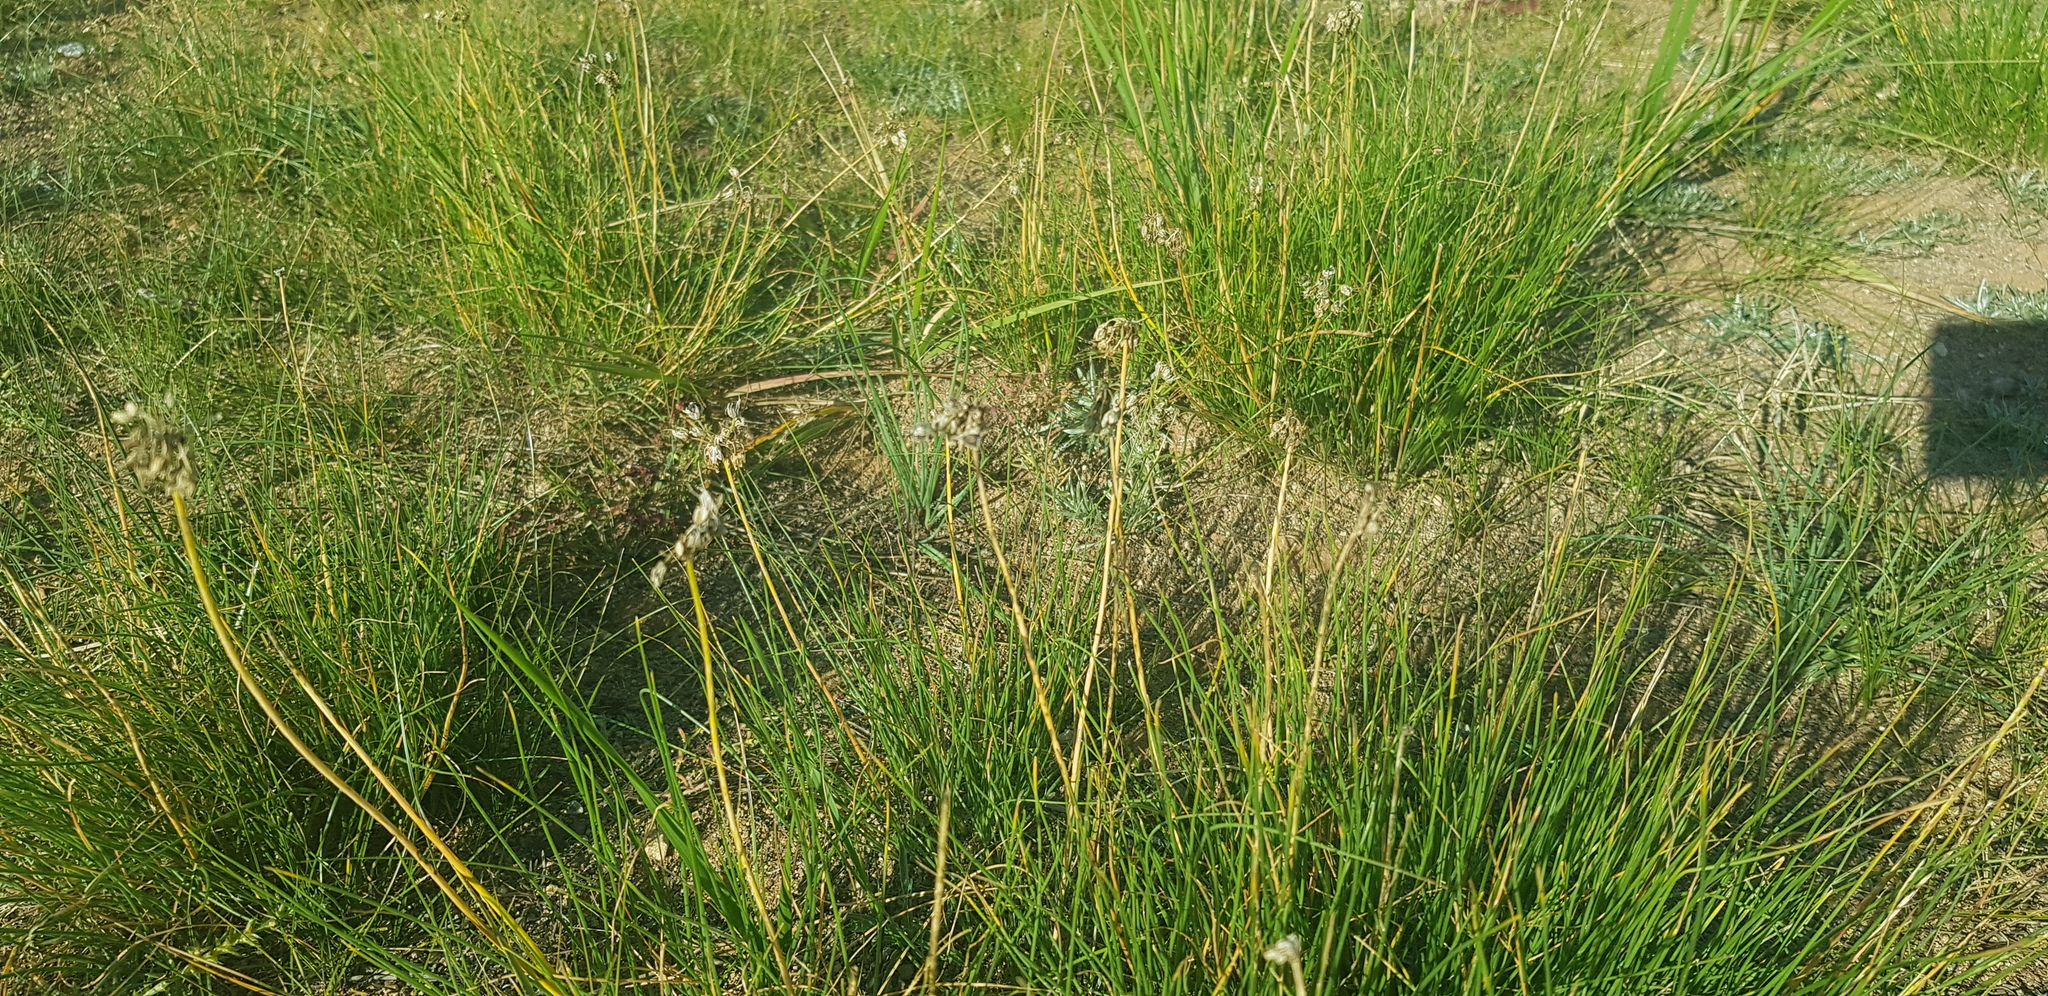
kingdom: Plantae
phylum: Tracheophyta
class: Liliopsida
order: Asparagales
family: Amaryllidaceae
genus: Allium
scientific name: Allium anisopodium
